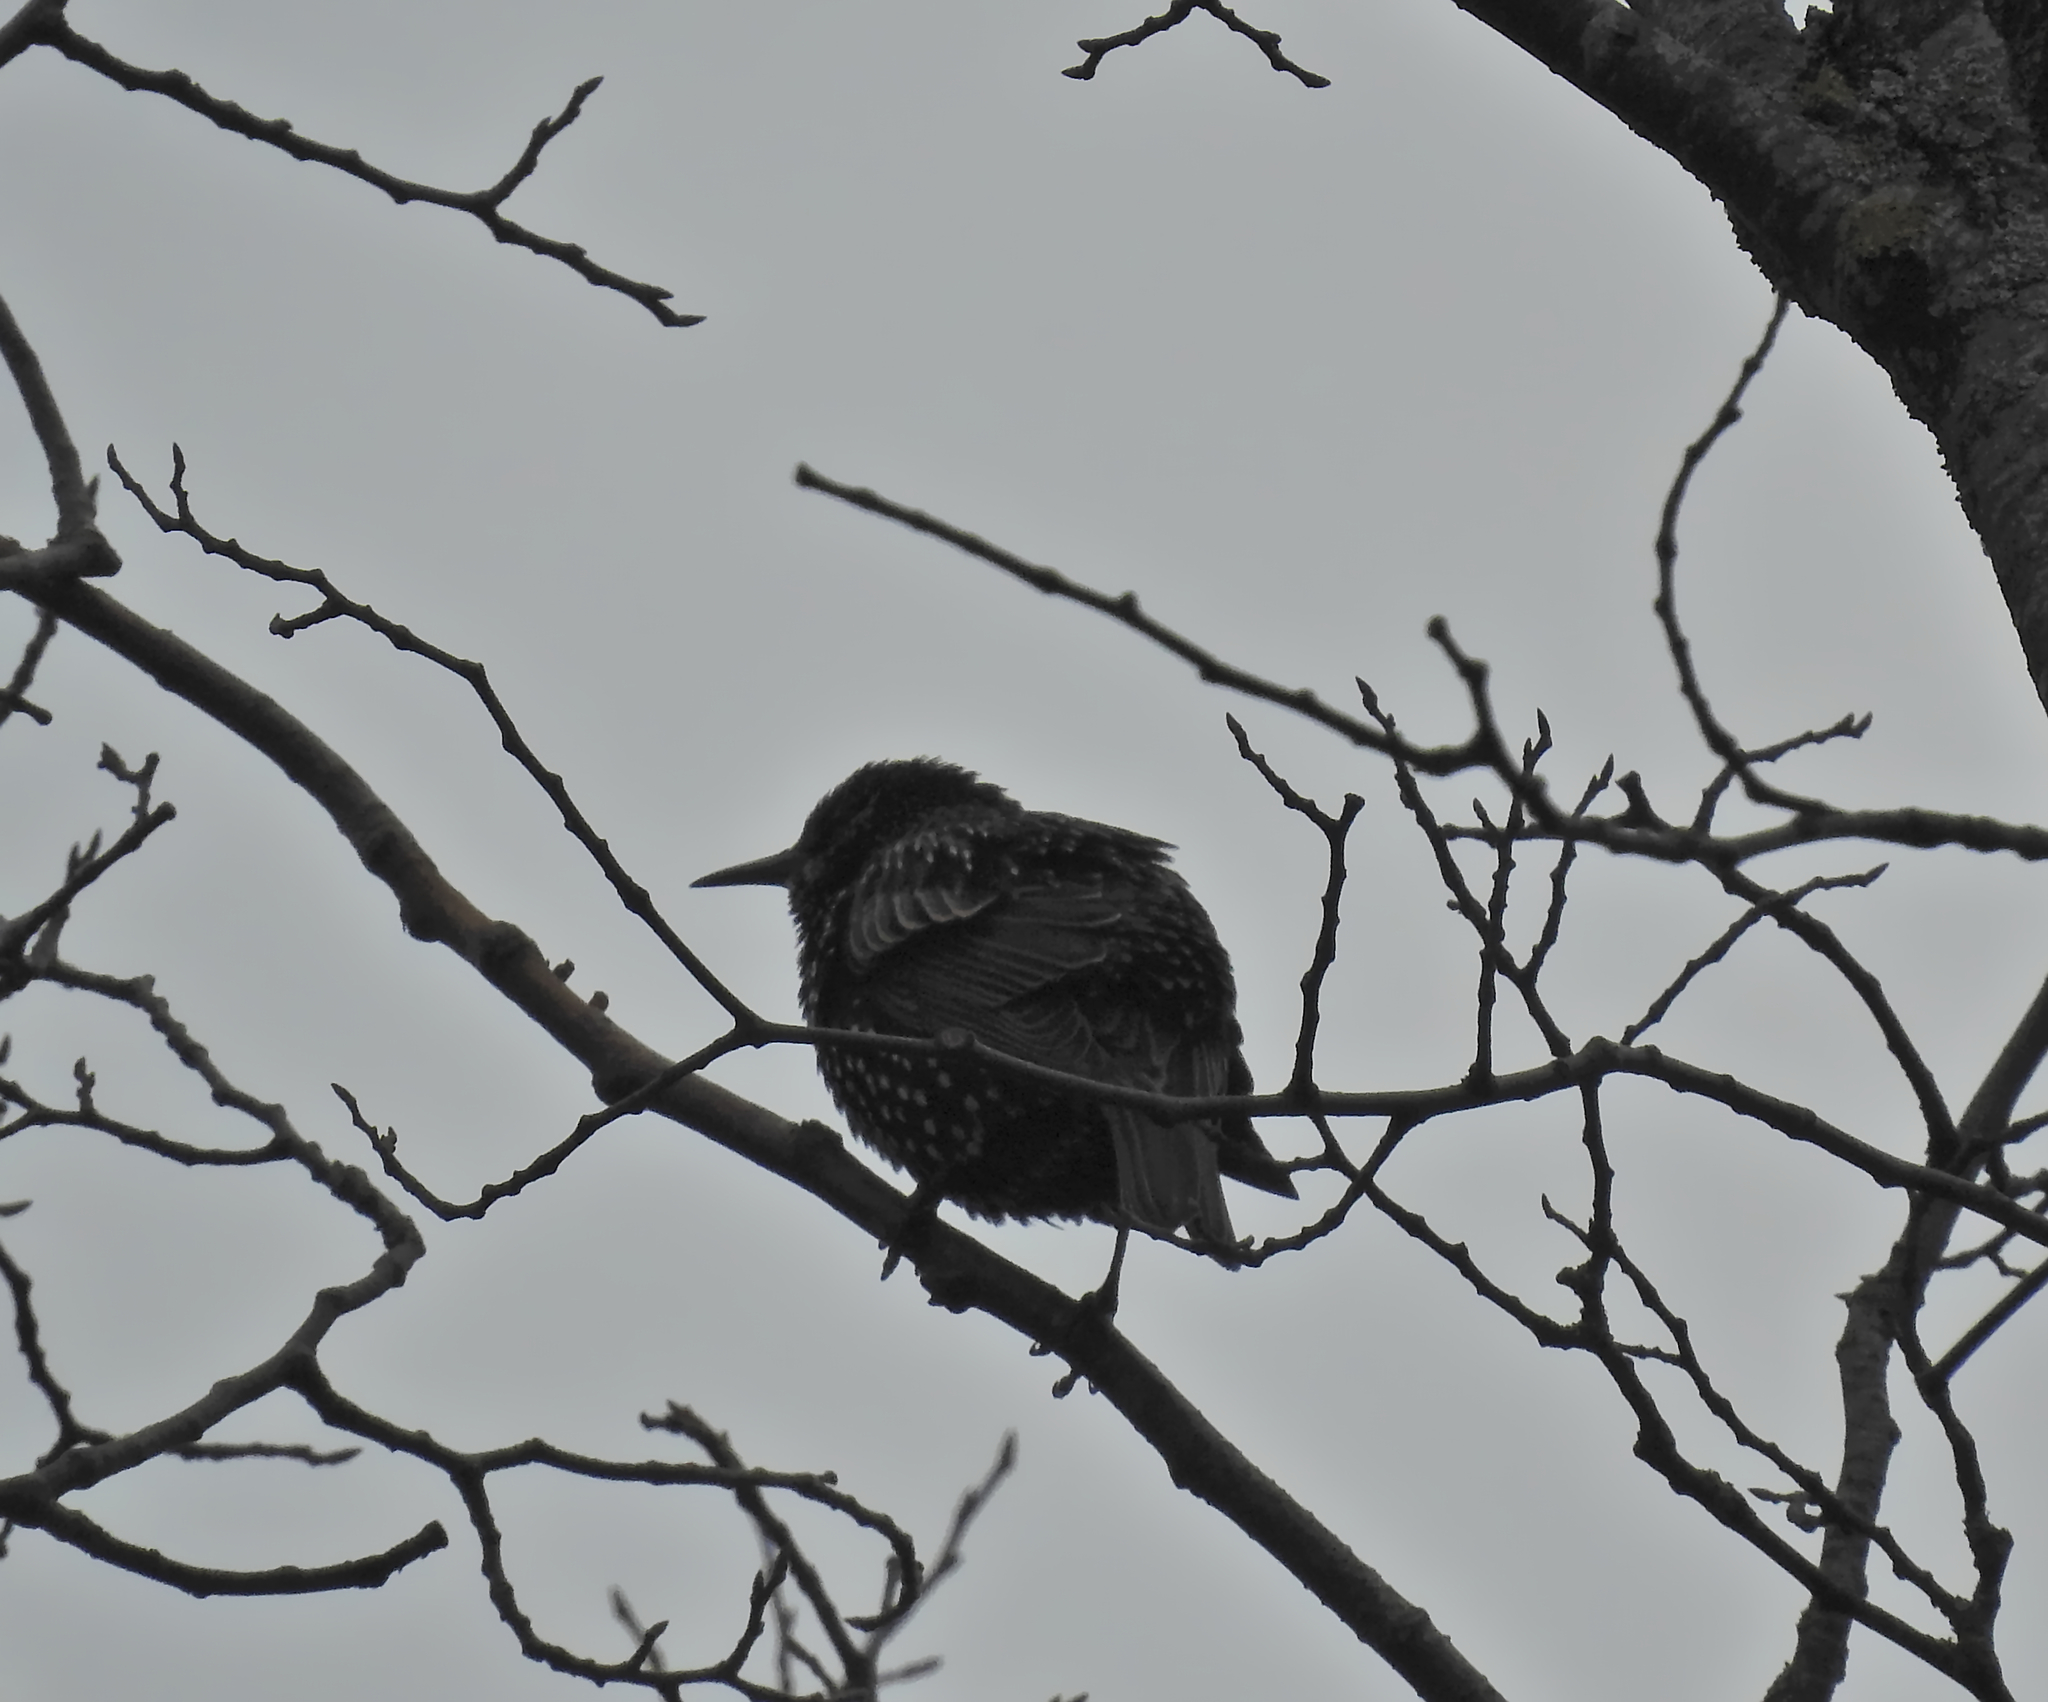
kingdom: Animalia
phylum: Chordata
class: Aves
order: Passeriformes
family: Sturnidae
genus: Sturnus
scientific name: Sturnus vulgaris
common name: Common starling
